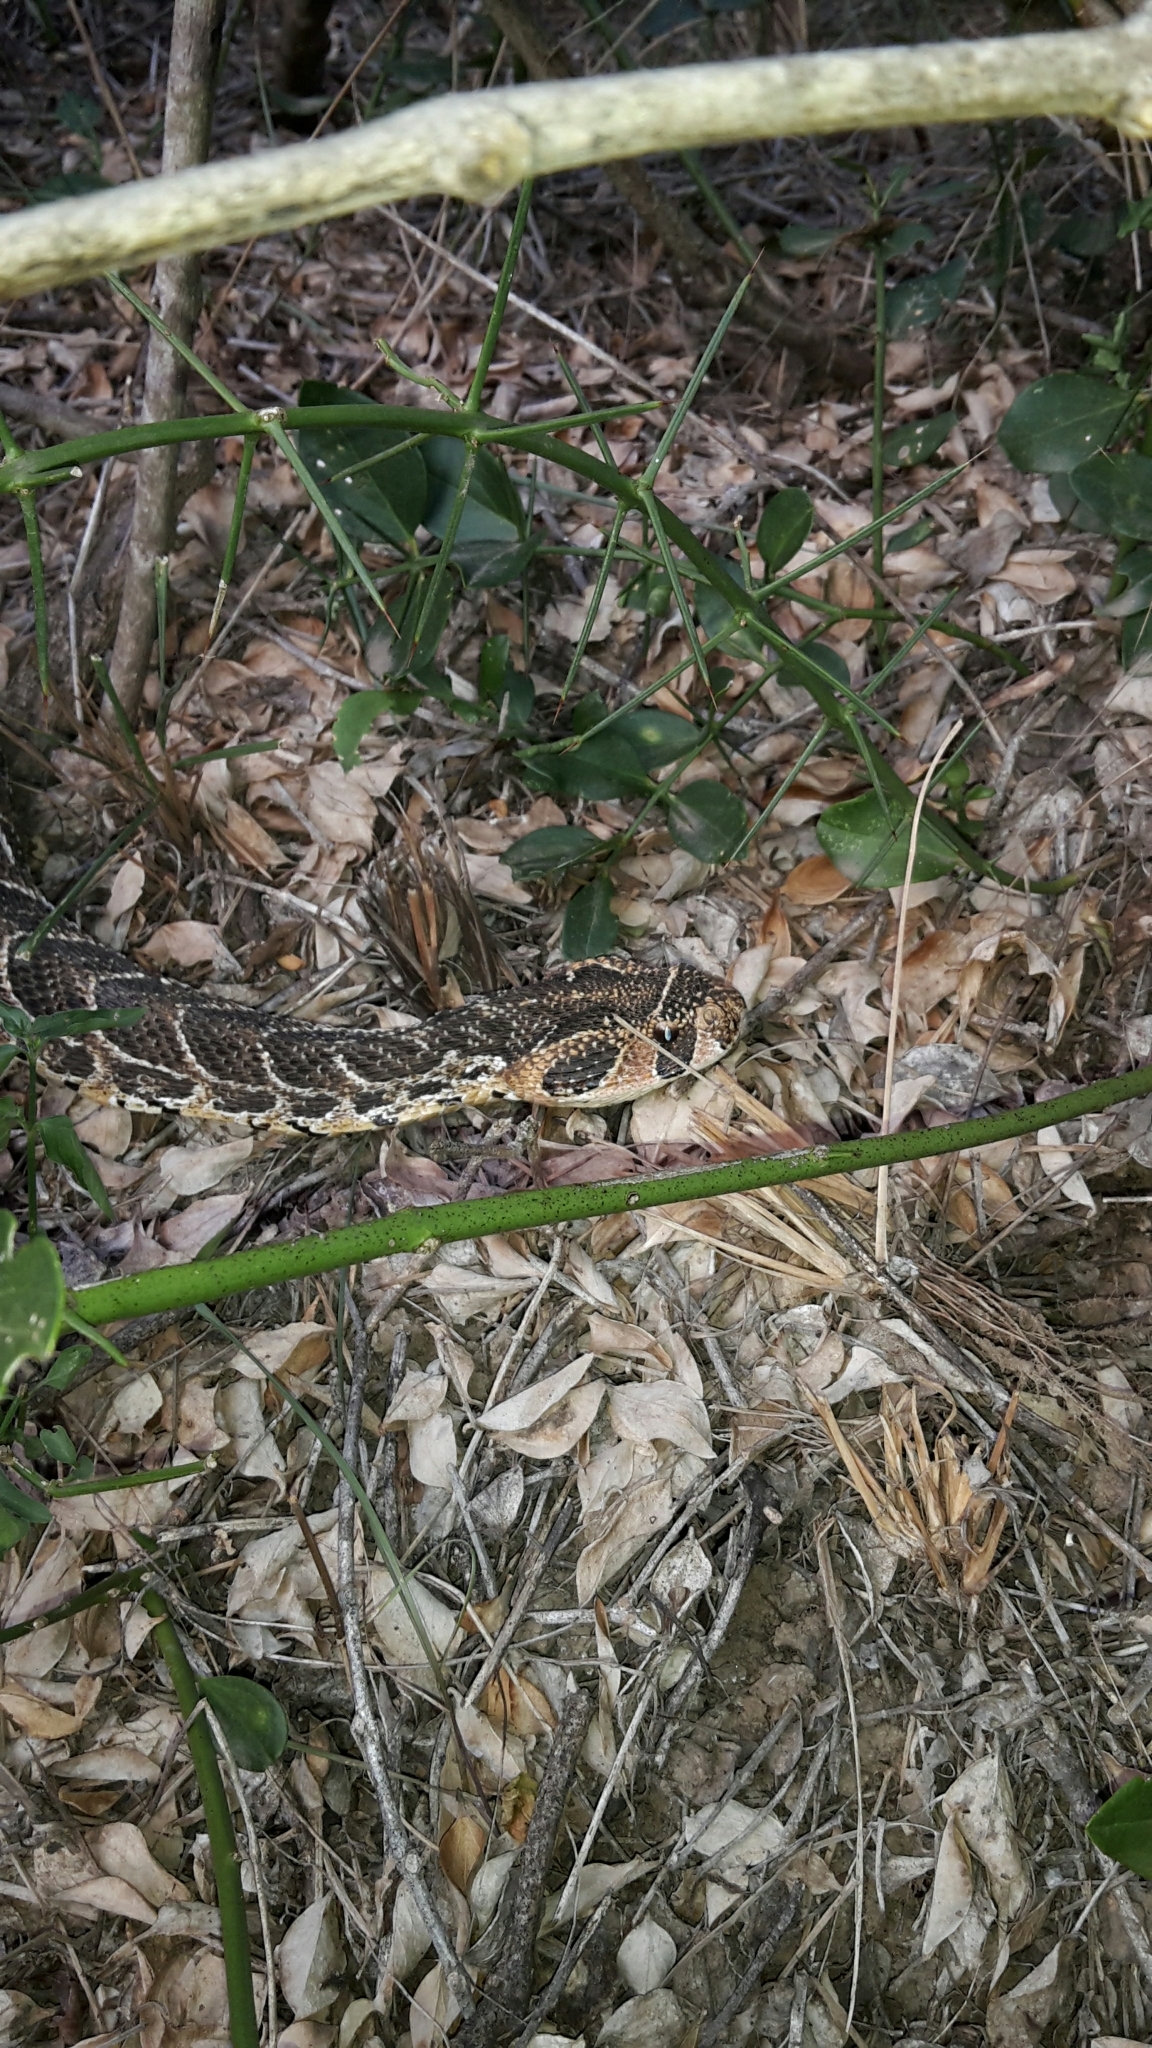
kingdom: Animalia
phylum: Chordata
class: Squamata
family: Viperidae
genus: Bitis
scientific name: Bitis arietans
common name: Puff adder
